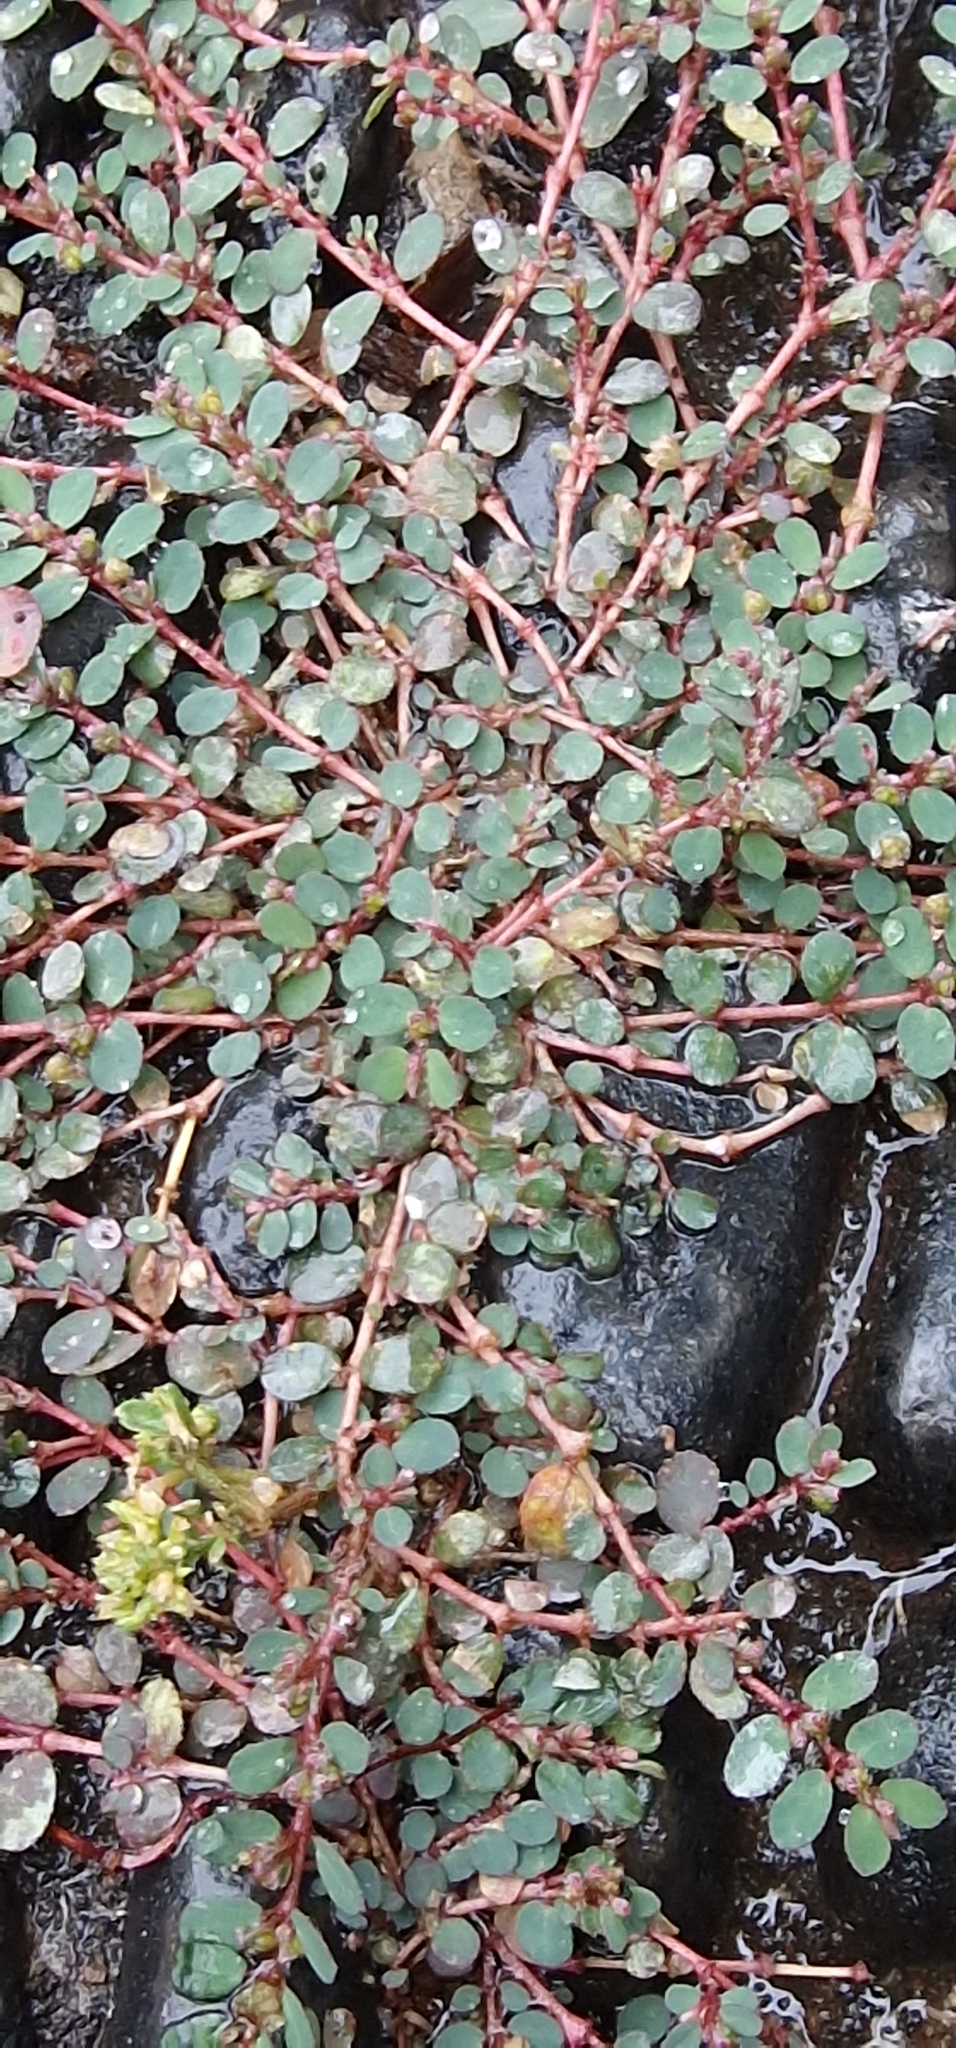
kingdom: Plantae
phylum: Tracheophyta
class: Magnoliopsida
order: Malpighiales
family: Euphorbiaceae
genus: Euphorbia
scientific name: Euphorbia prostrata
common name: Prostrate sandmat
